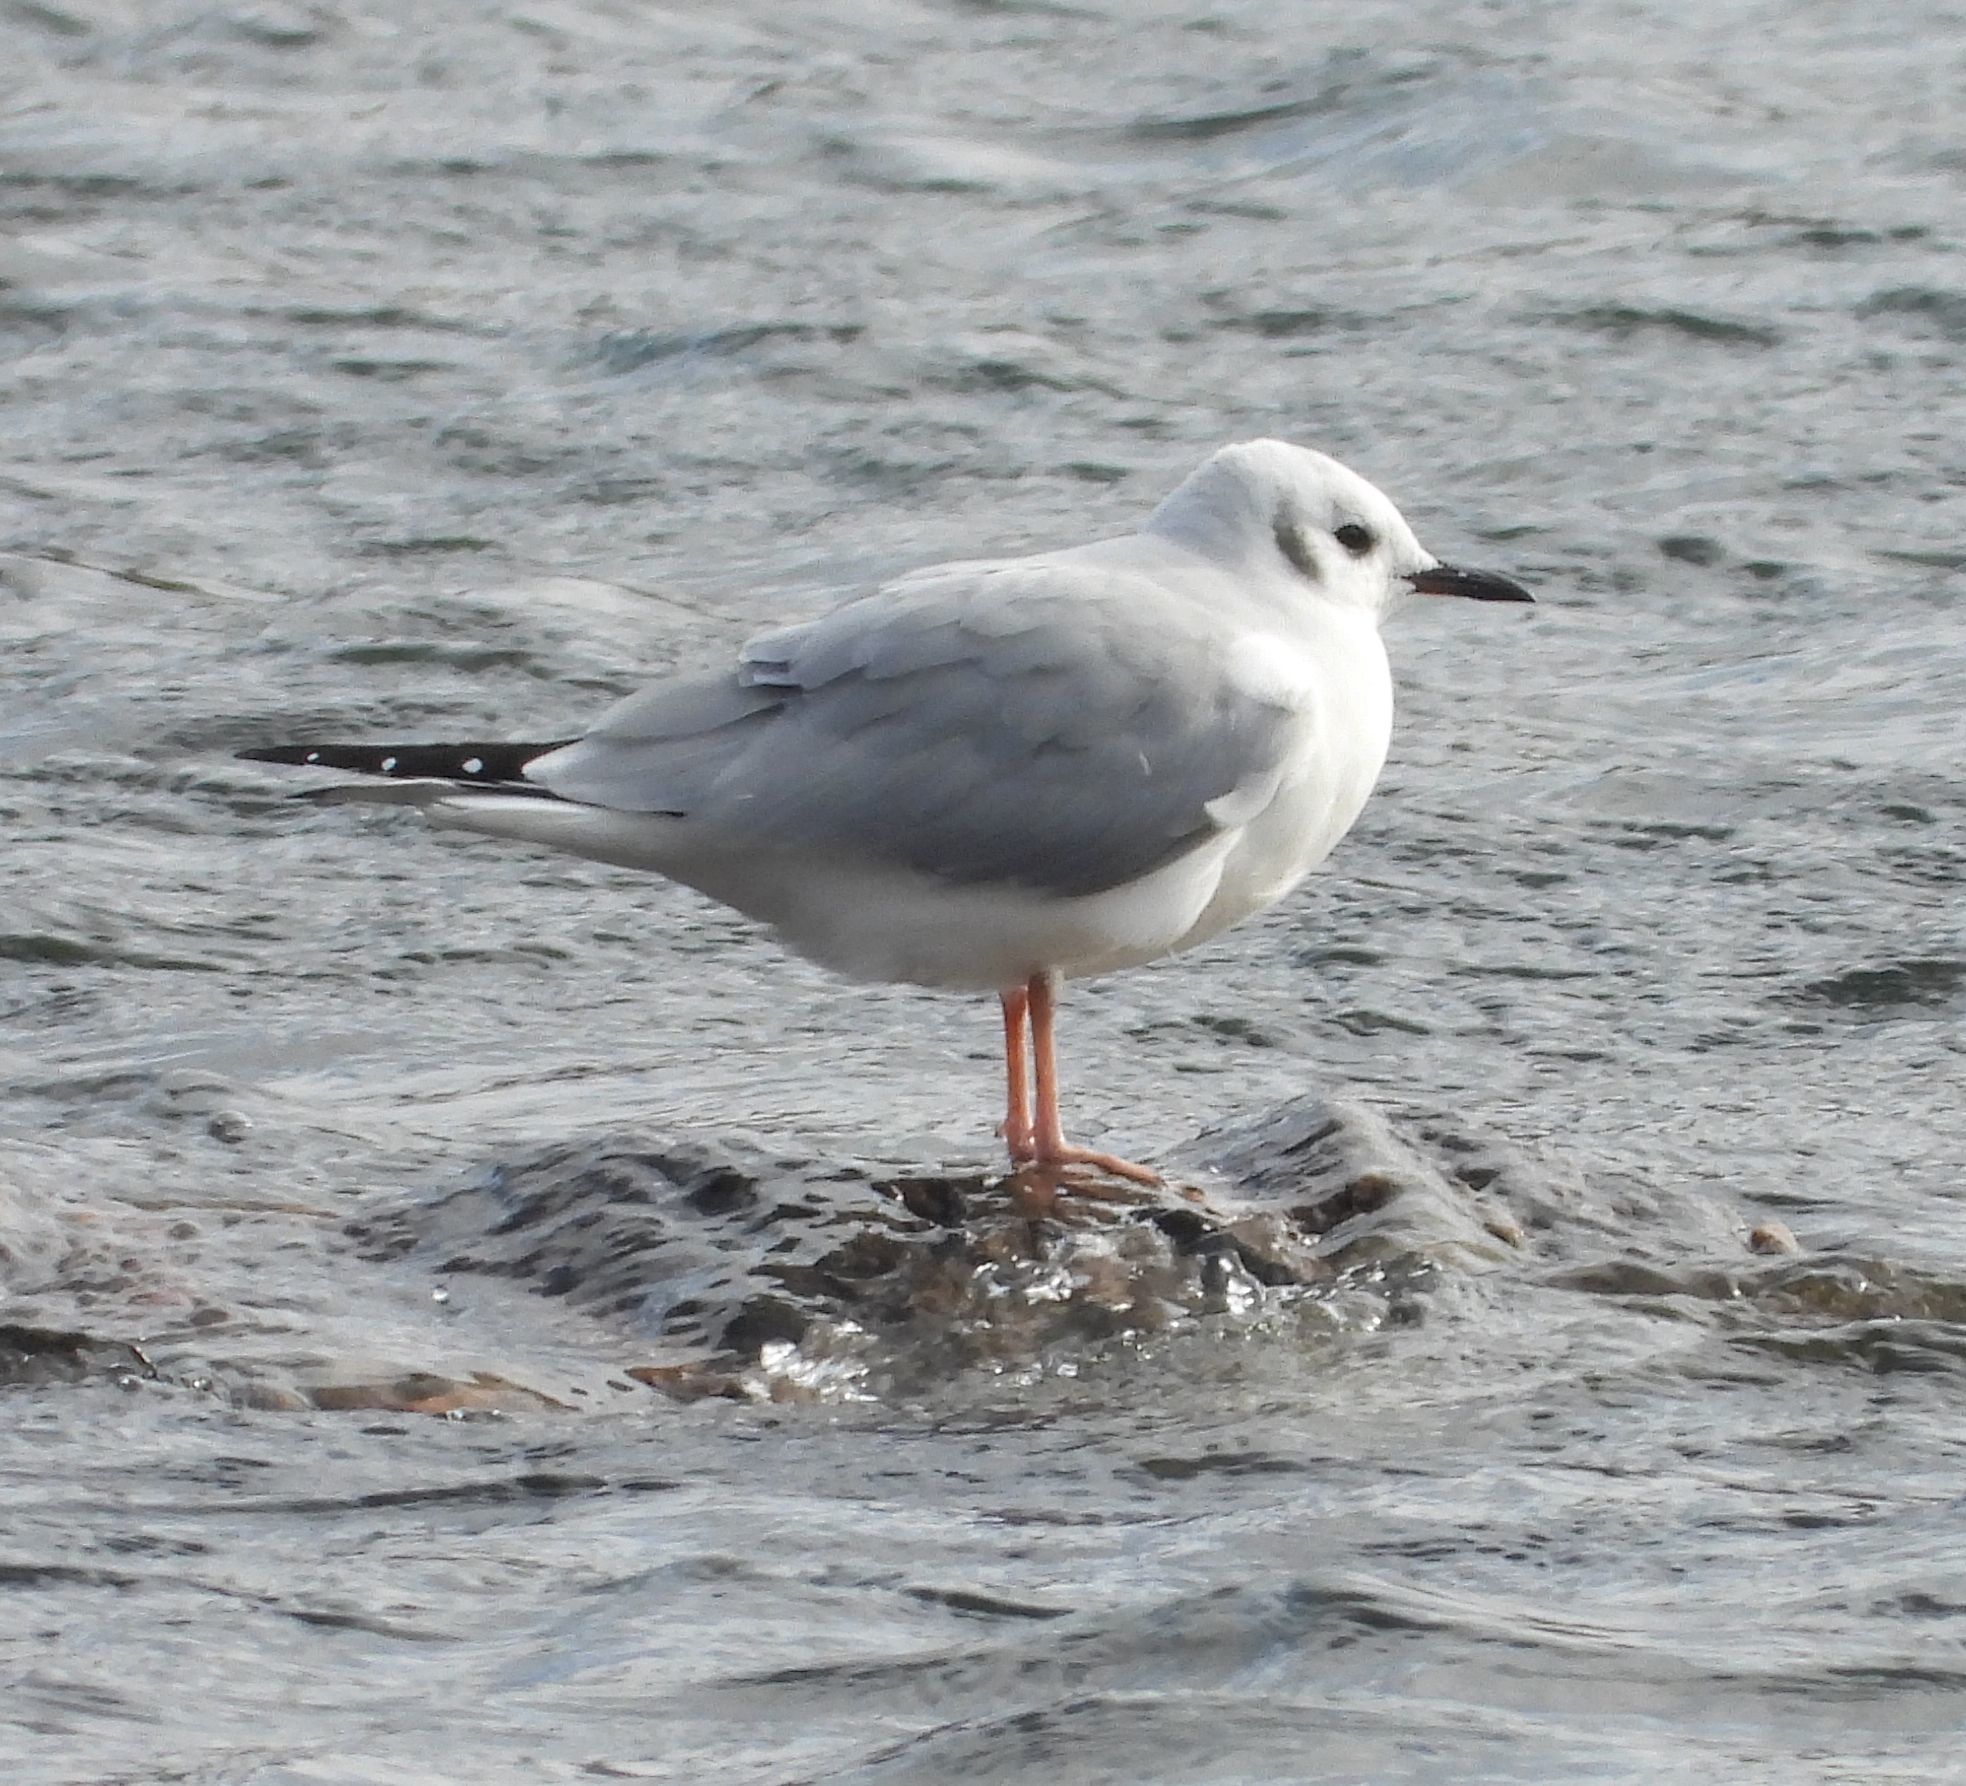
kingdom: Animalia
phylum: Chordata
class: Aves
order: Charadriiformes
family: Laridae
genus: Chroicocephalus
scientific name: Chroicocephalus philadelphia
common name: Bonaparte's gull
